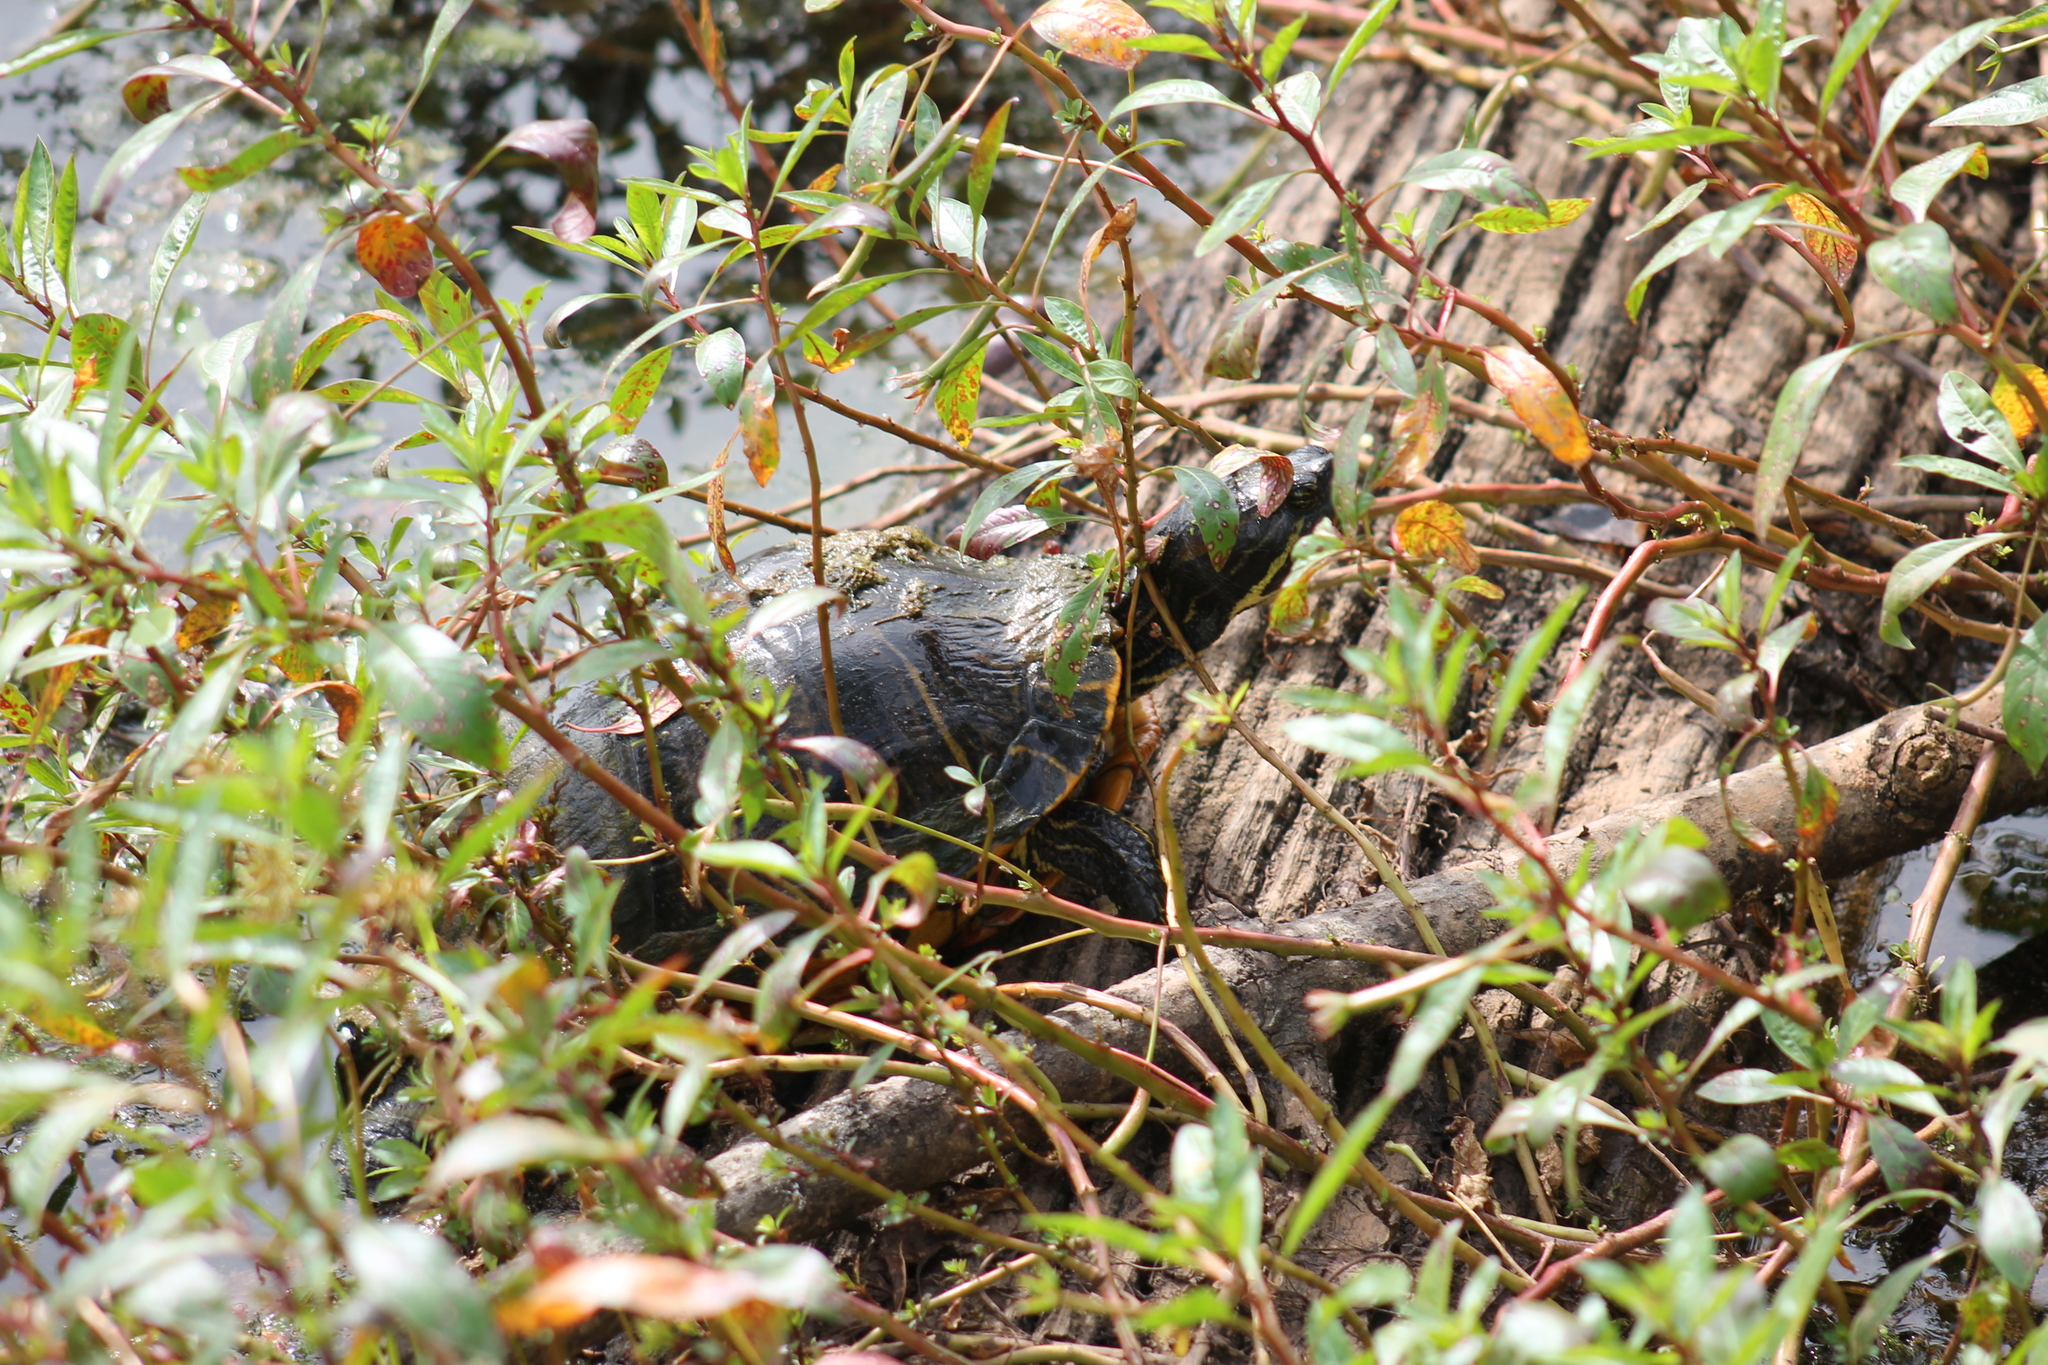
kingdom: Animalia
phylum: Chordata
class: Testudines
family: Emydidae
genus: Trachemys
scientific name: Trachemys scripta
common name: Slider
